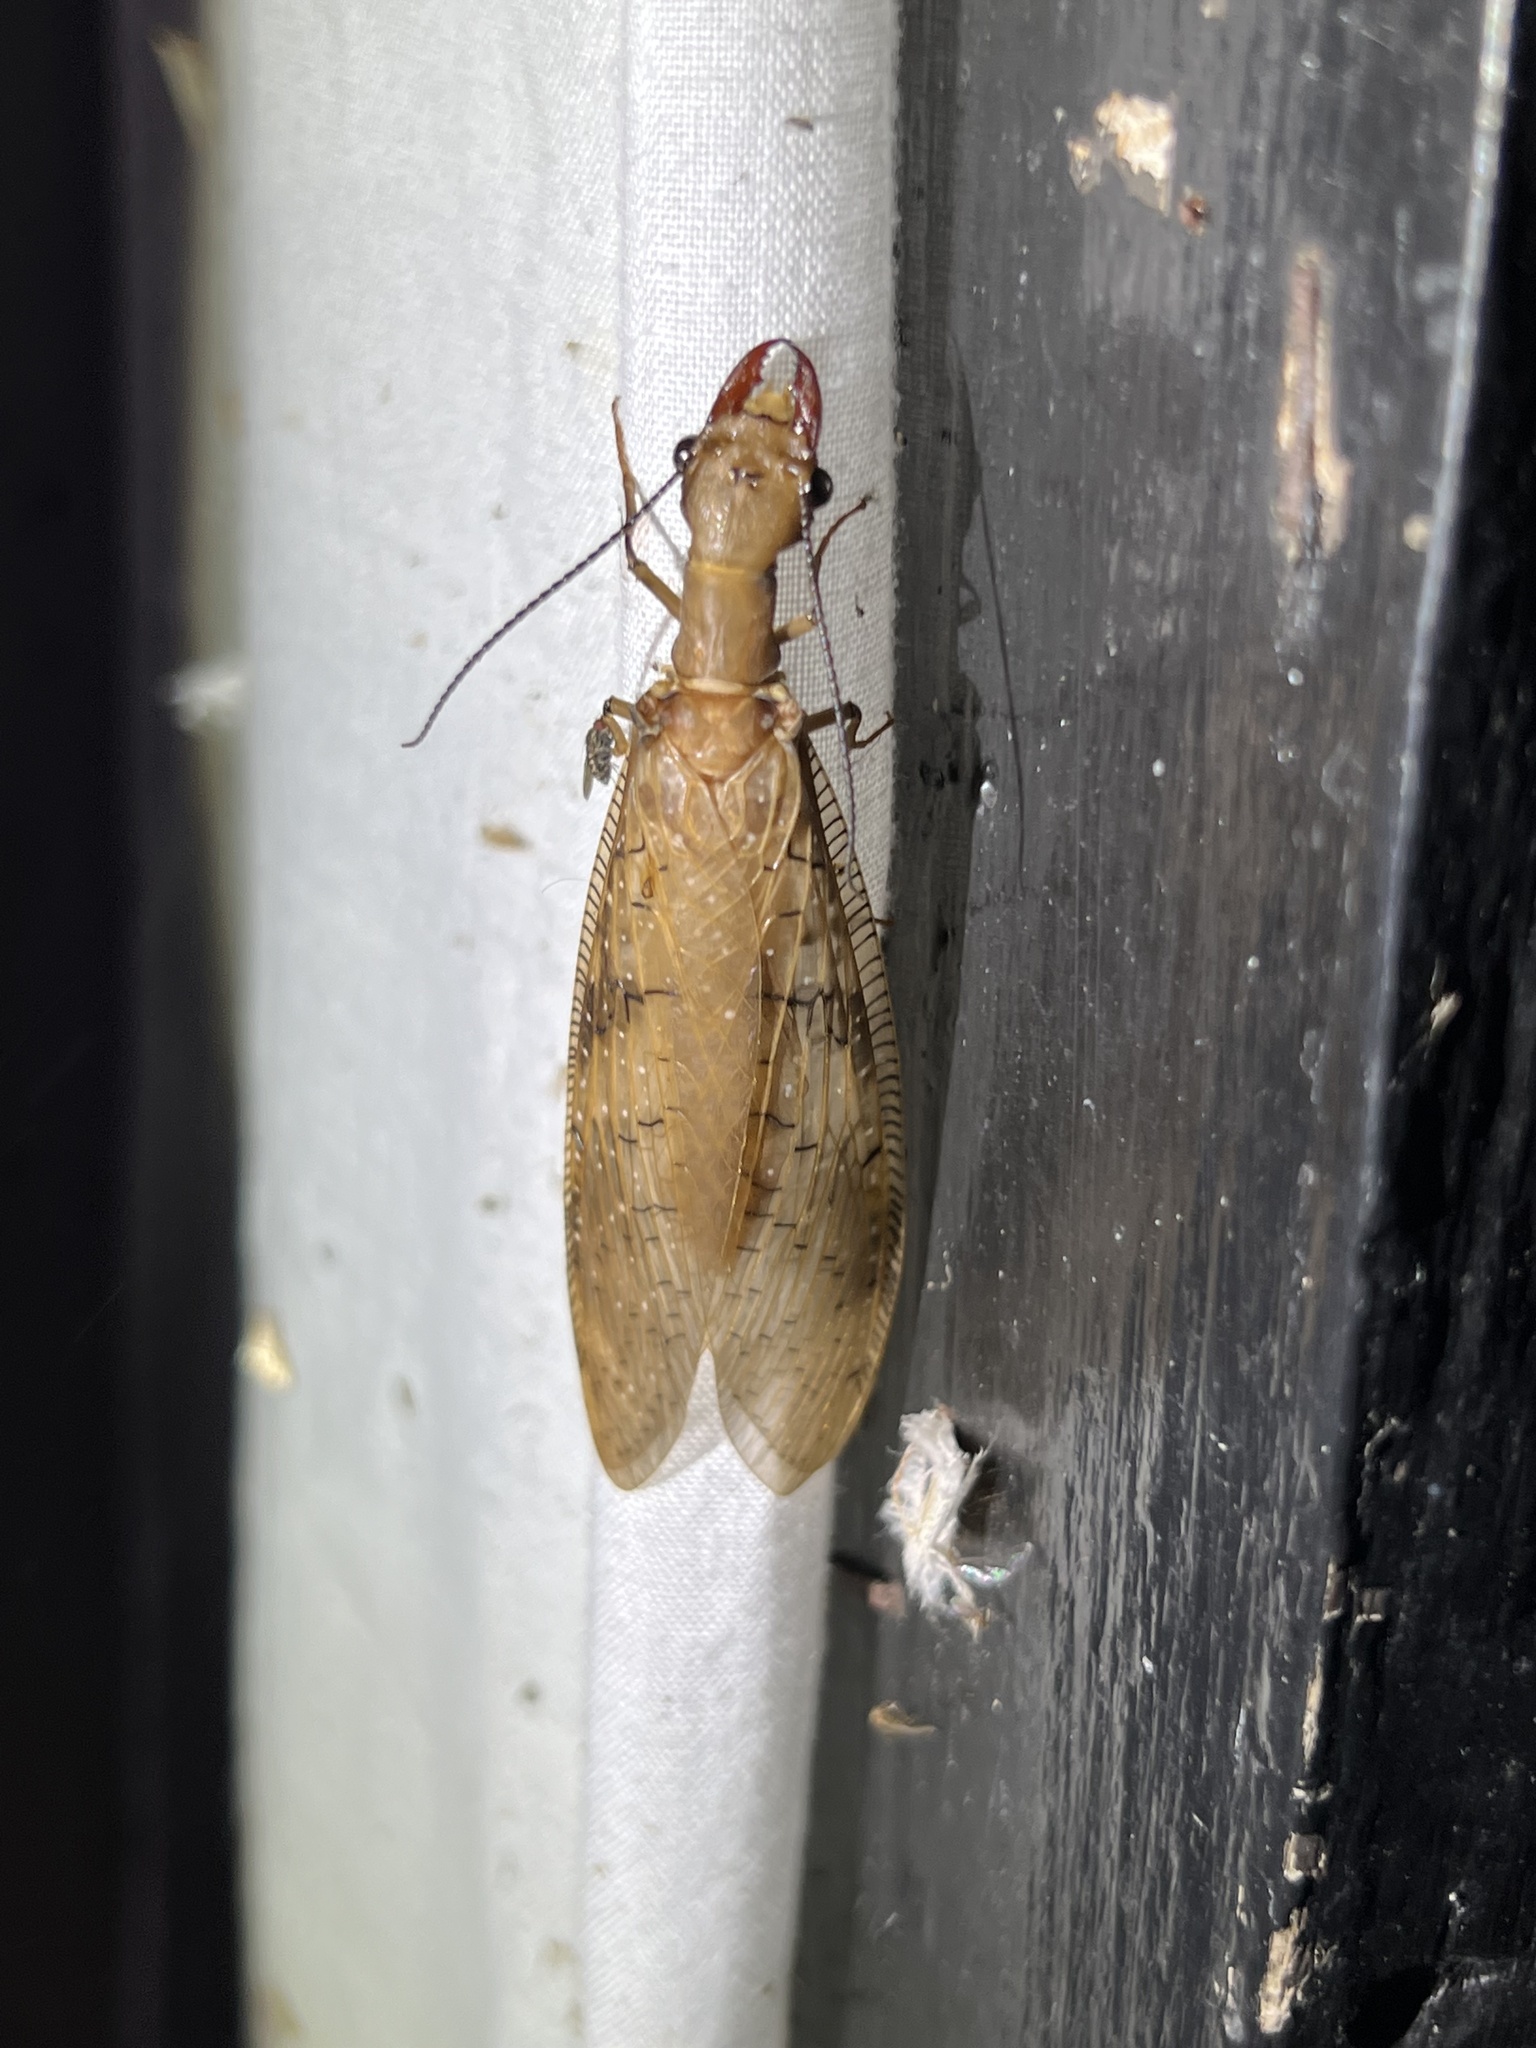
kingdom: Animalia
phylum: Arthropoda
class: Insecta
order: Megaloptera
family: Corydalidae
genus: Corydalus
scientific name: Corydalus flavicornis
